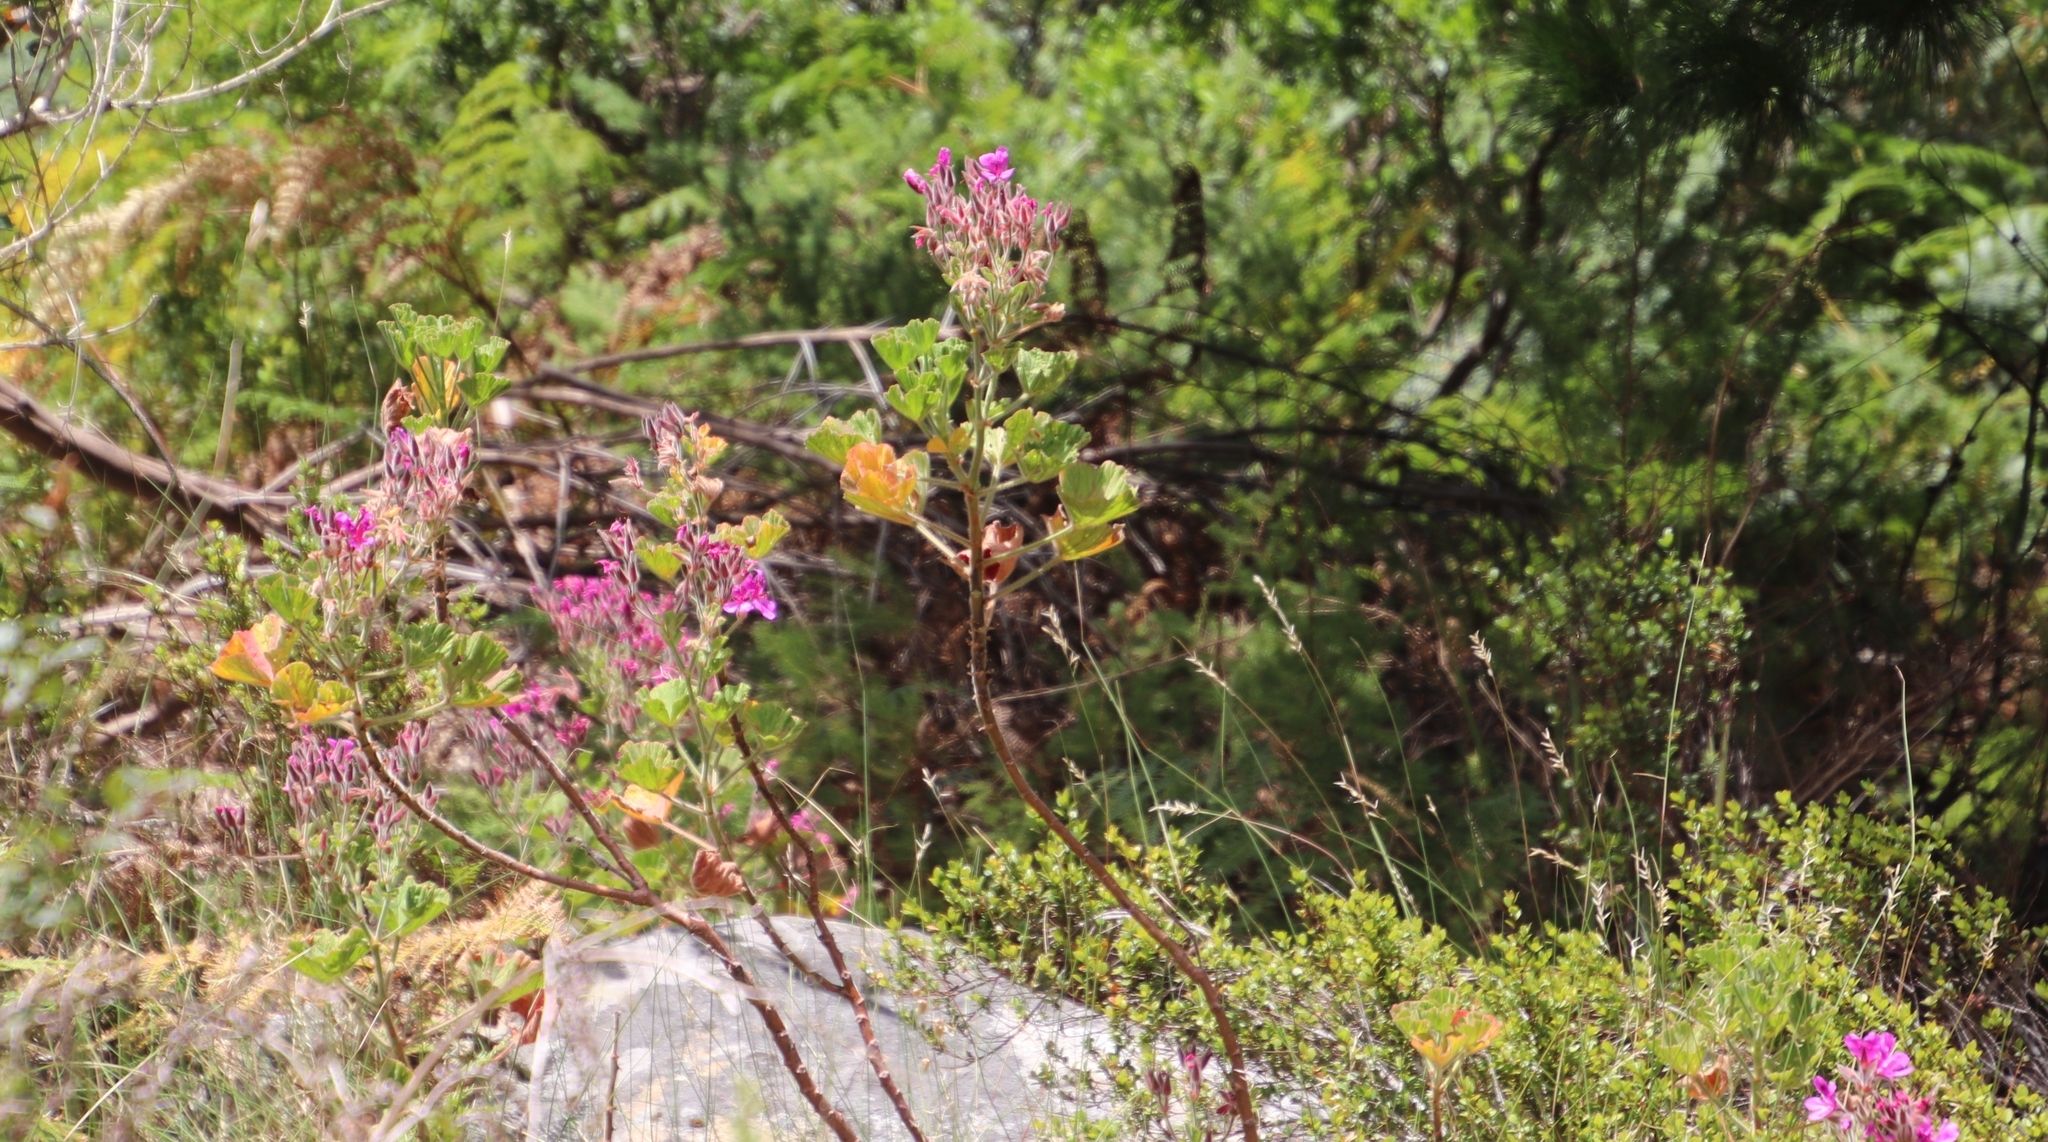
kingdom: Plantae
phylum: Tracheophyta
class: Magnoliopsida
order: Geraniales
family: Geraniaceae
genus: Pelargonium
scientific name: Pelargonium cucullatum
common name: Tree pelargonium
